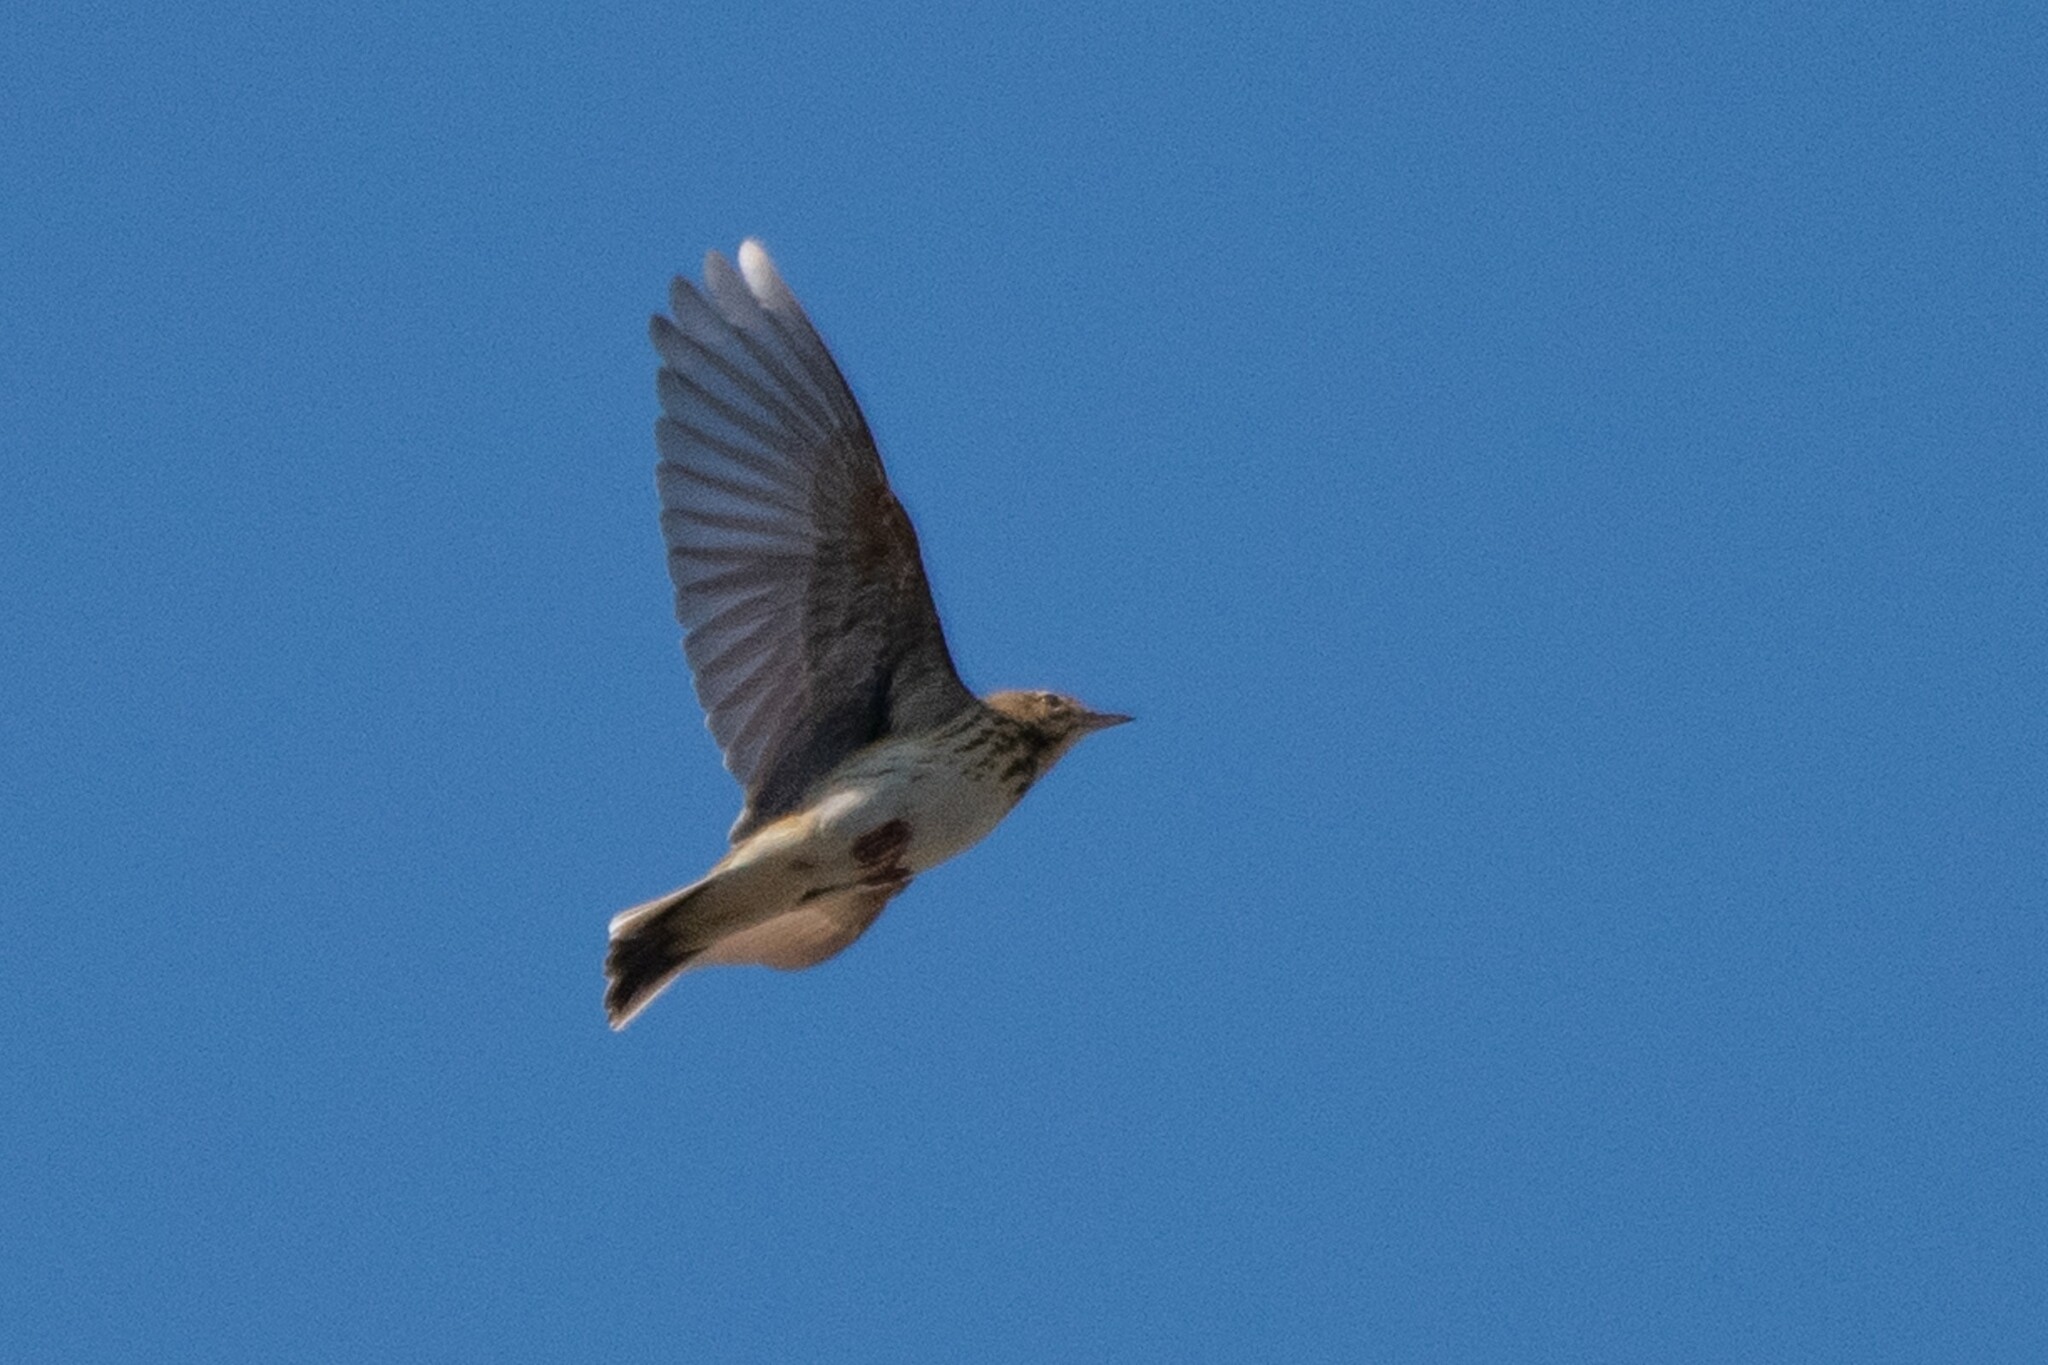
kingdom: Animalia
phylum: Chordata
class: Aves
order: Passeriformes
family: Motacillidae
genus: Anthus
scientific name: Anthus trivialis
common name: Tree pipit
